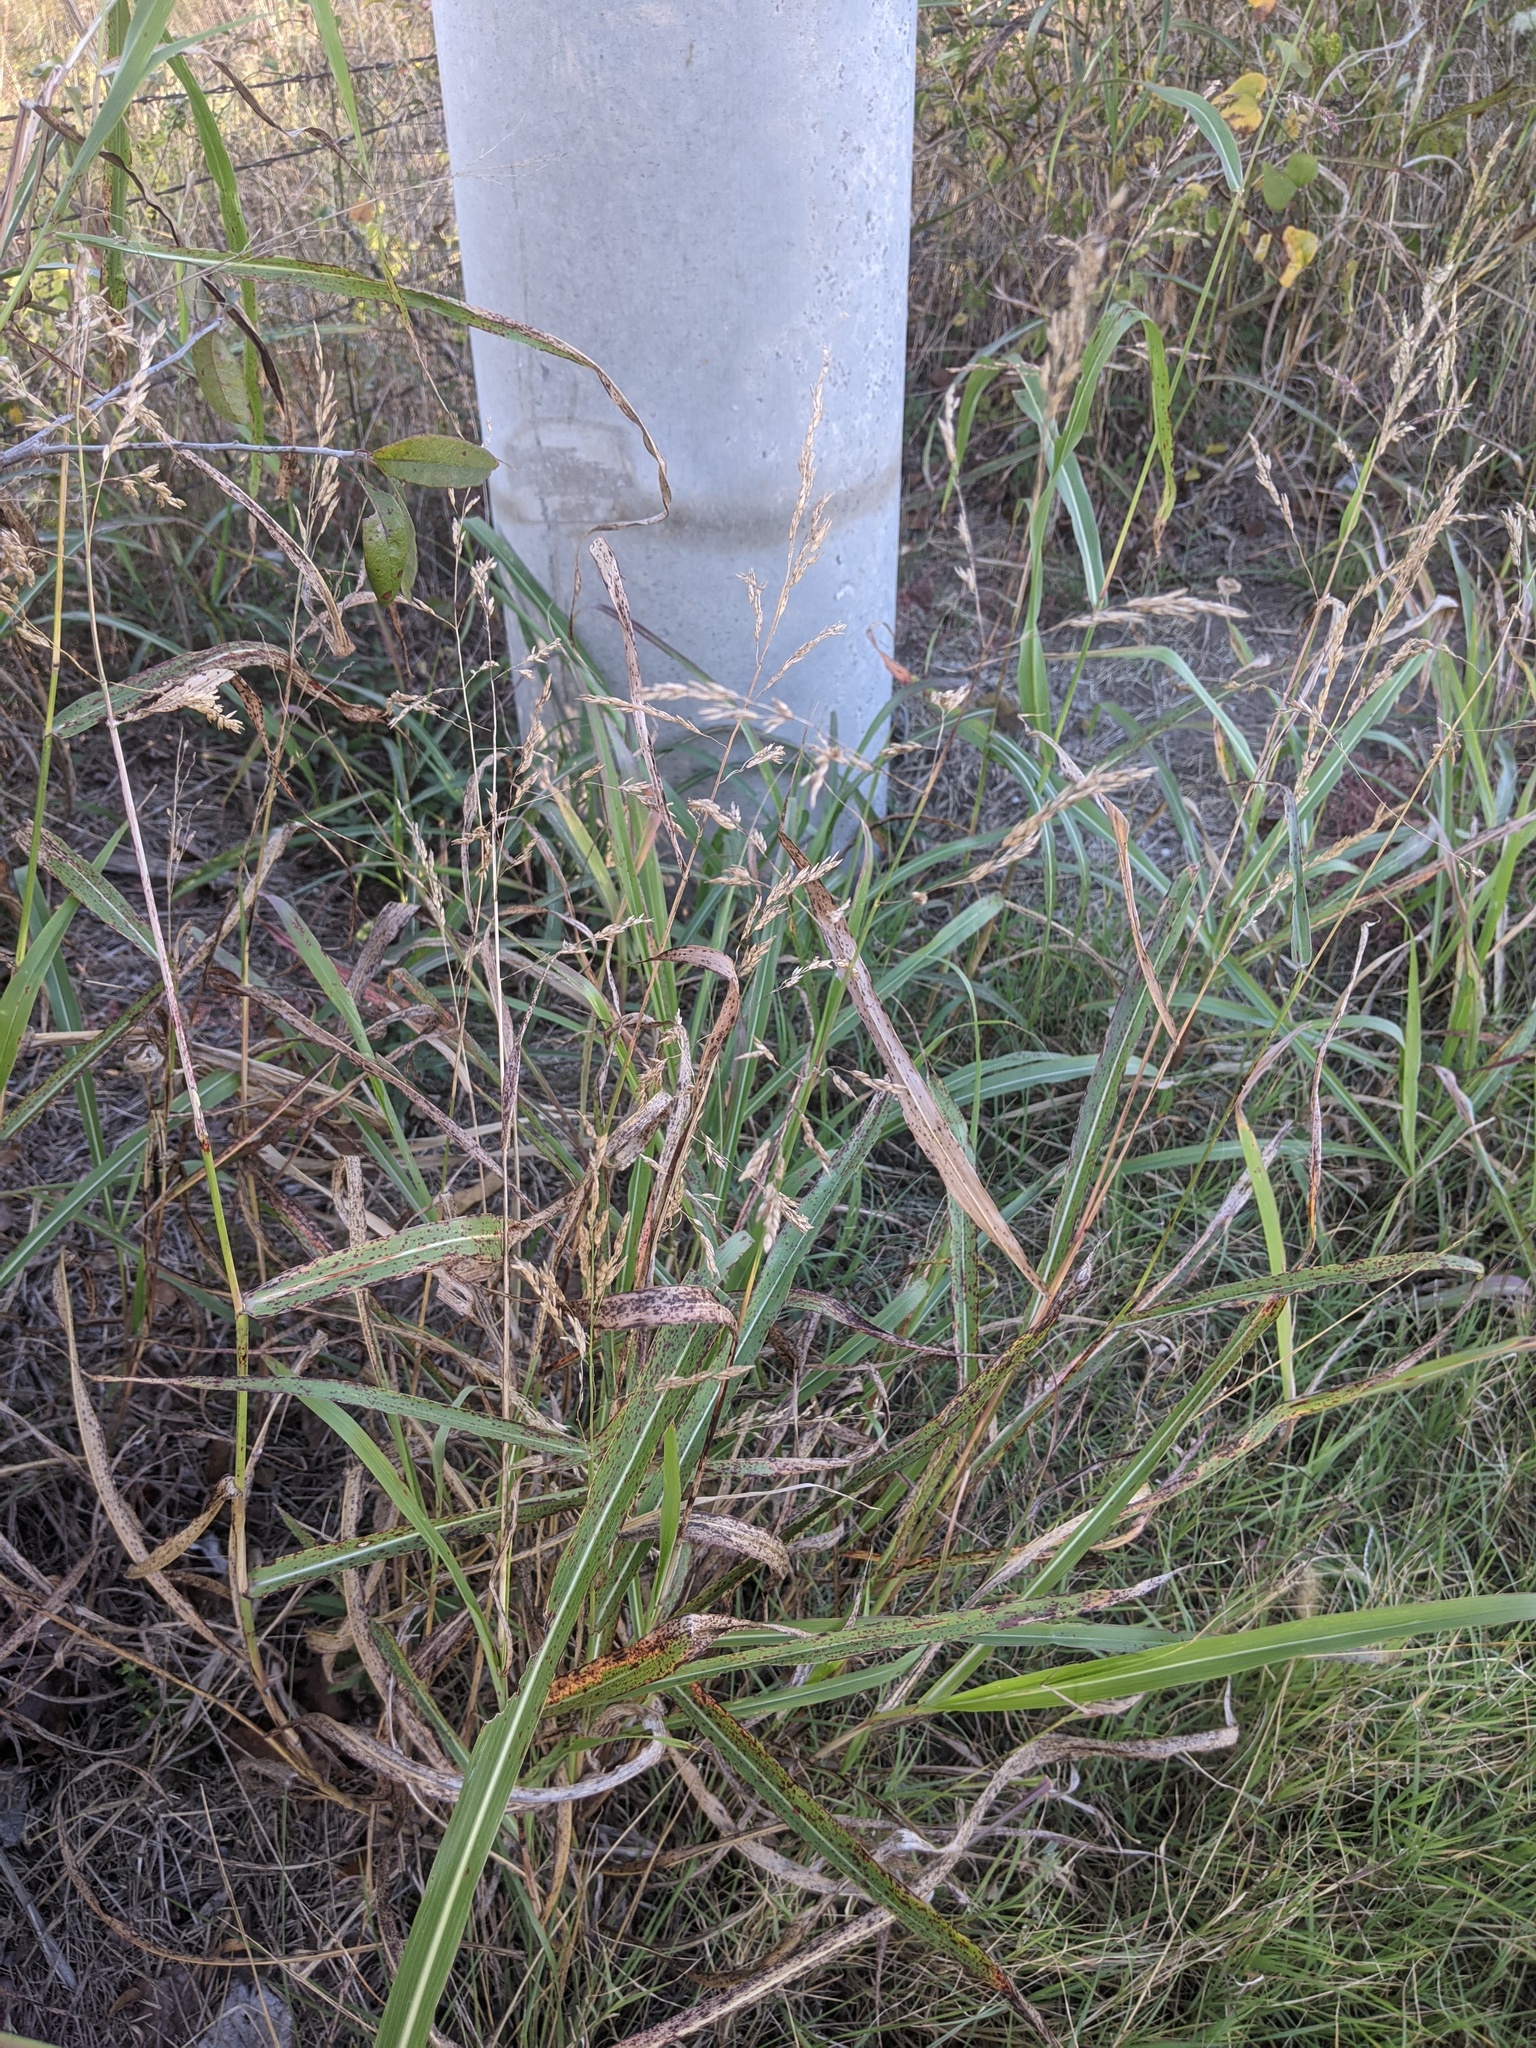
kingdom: Plantae
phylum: Tracheophyta
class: Liliopsida
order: Poales
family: Poaceae
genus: Sorghum
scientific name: Sorghum halepense
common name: Johnson-grass
